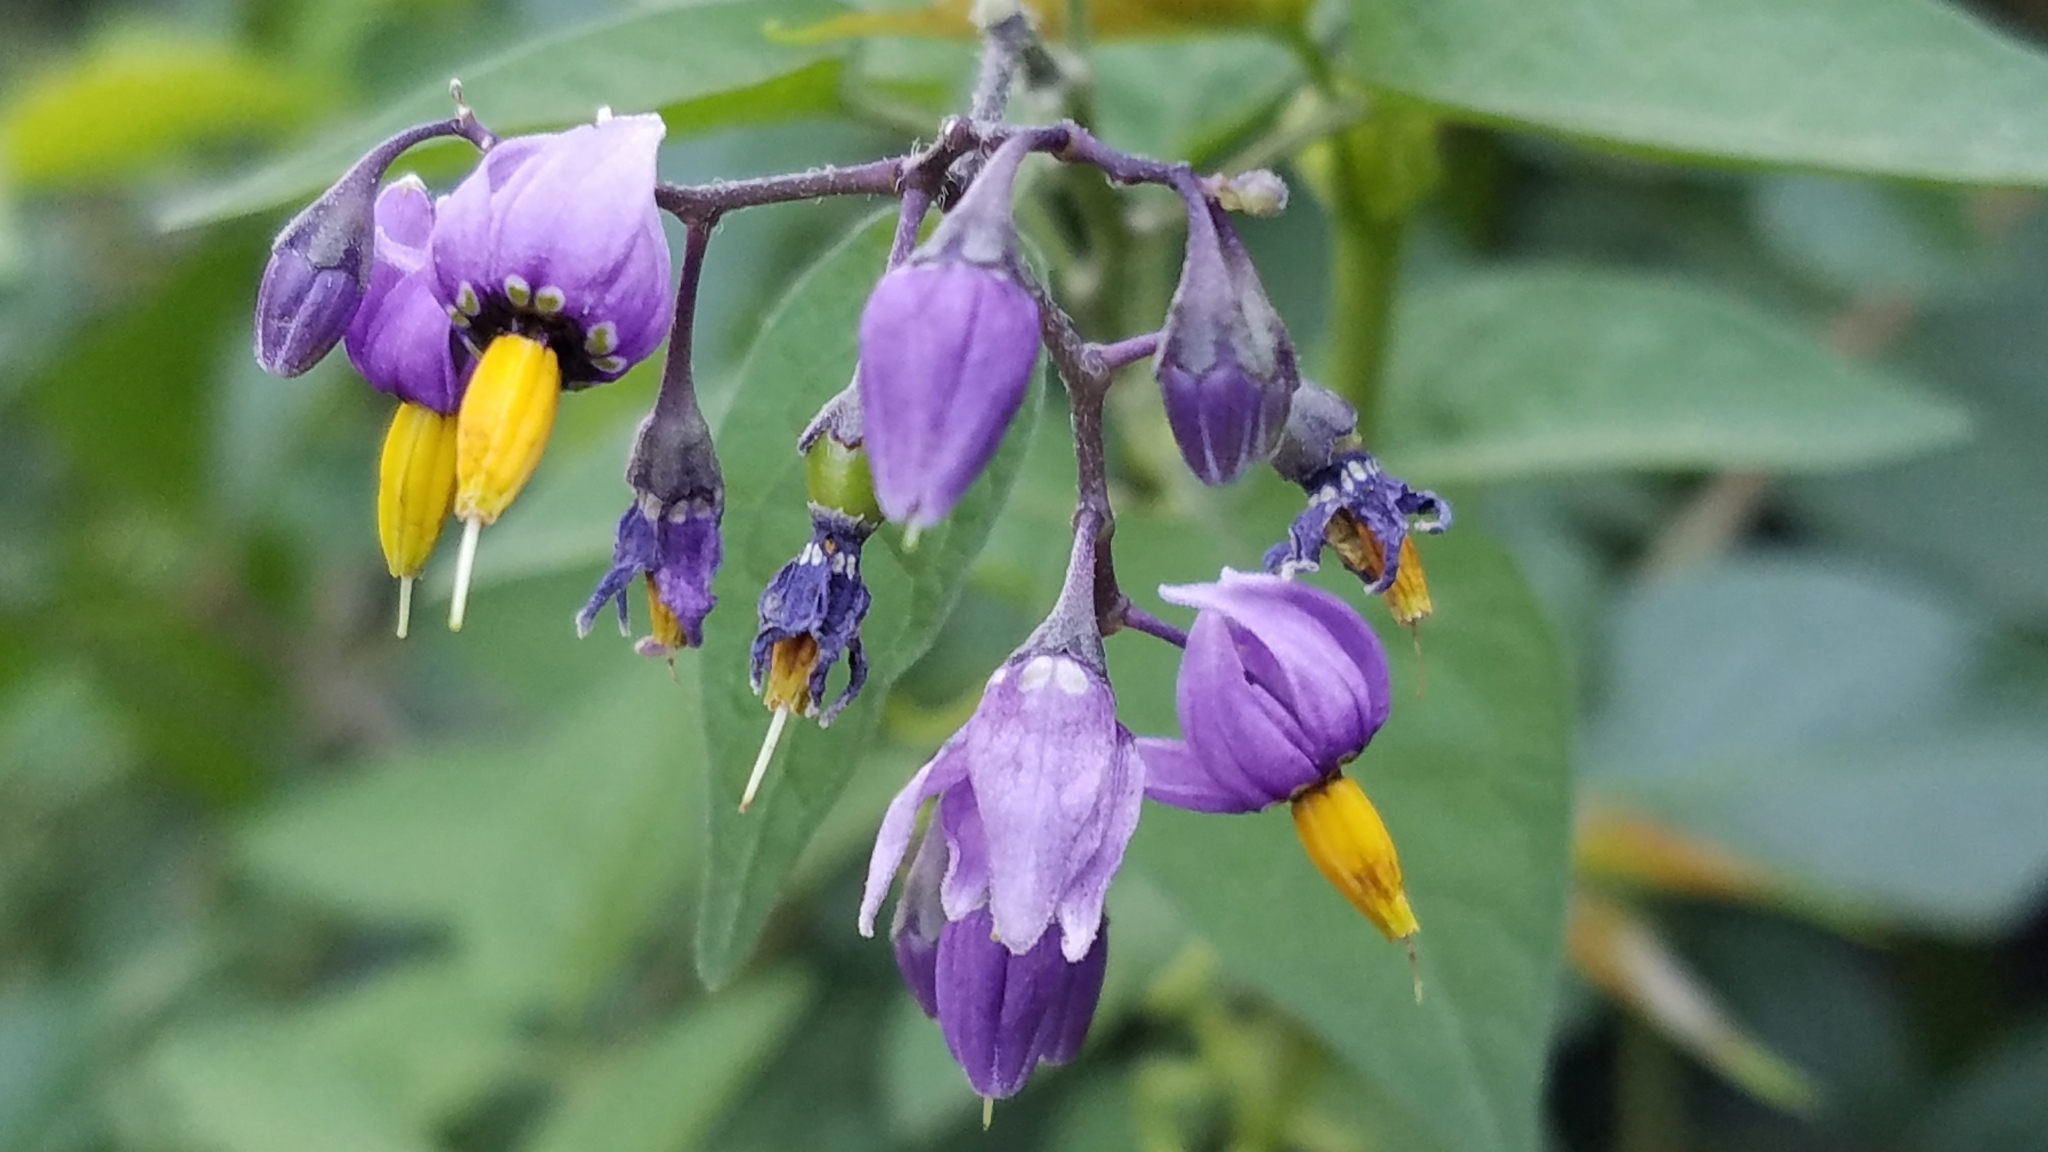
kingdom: Plantae
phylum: Tracheophyta
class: Magnoliopsida
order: Solanales
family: Solanaceae
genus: Solanum
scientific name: Solanum dulcamara
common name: Climbing nightshade
